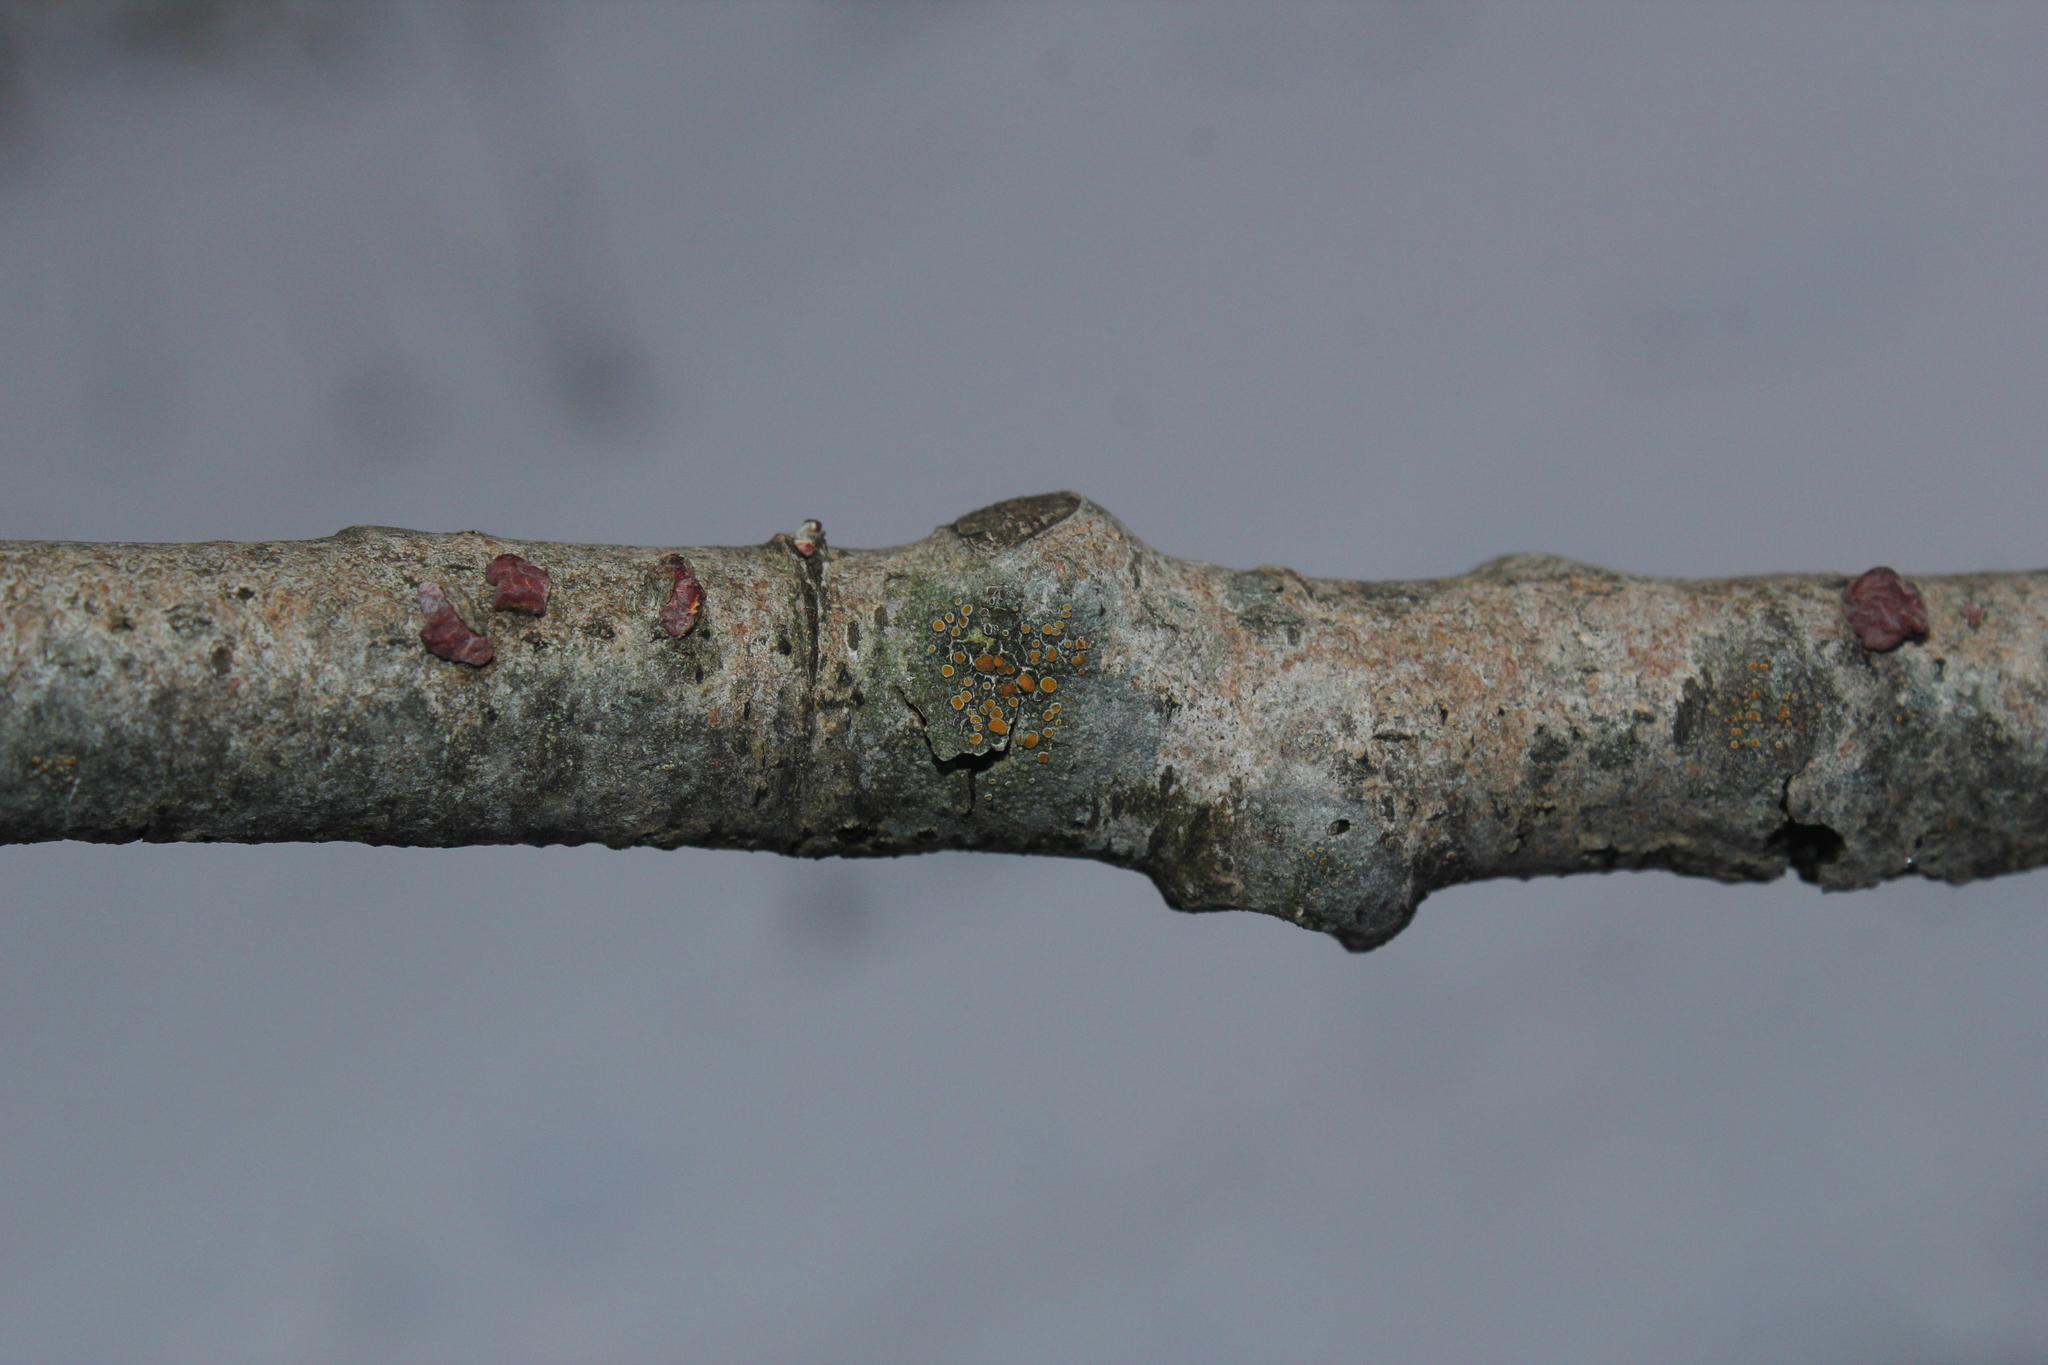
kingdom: Fungi
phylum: Ascomycota
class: Lecanoromycetes
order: Teloschistales
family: Teloschistaceae
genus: Caloplaca
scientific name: Caloplaca cerina
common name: Gray-rimmed firedot lichen
